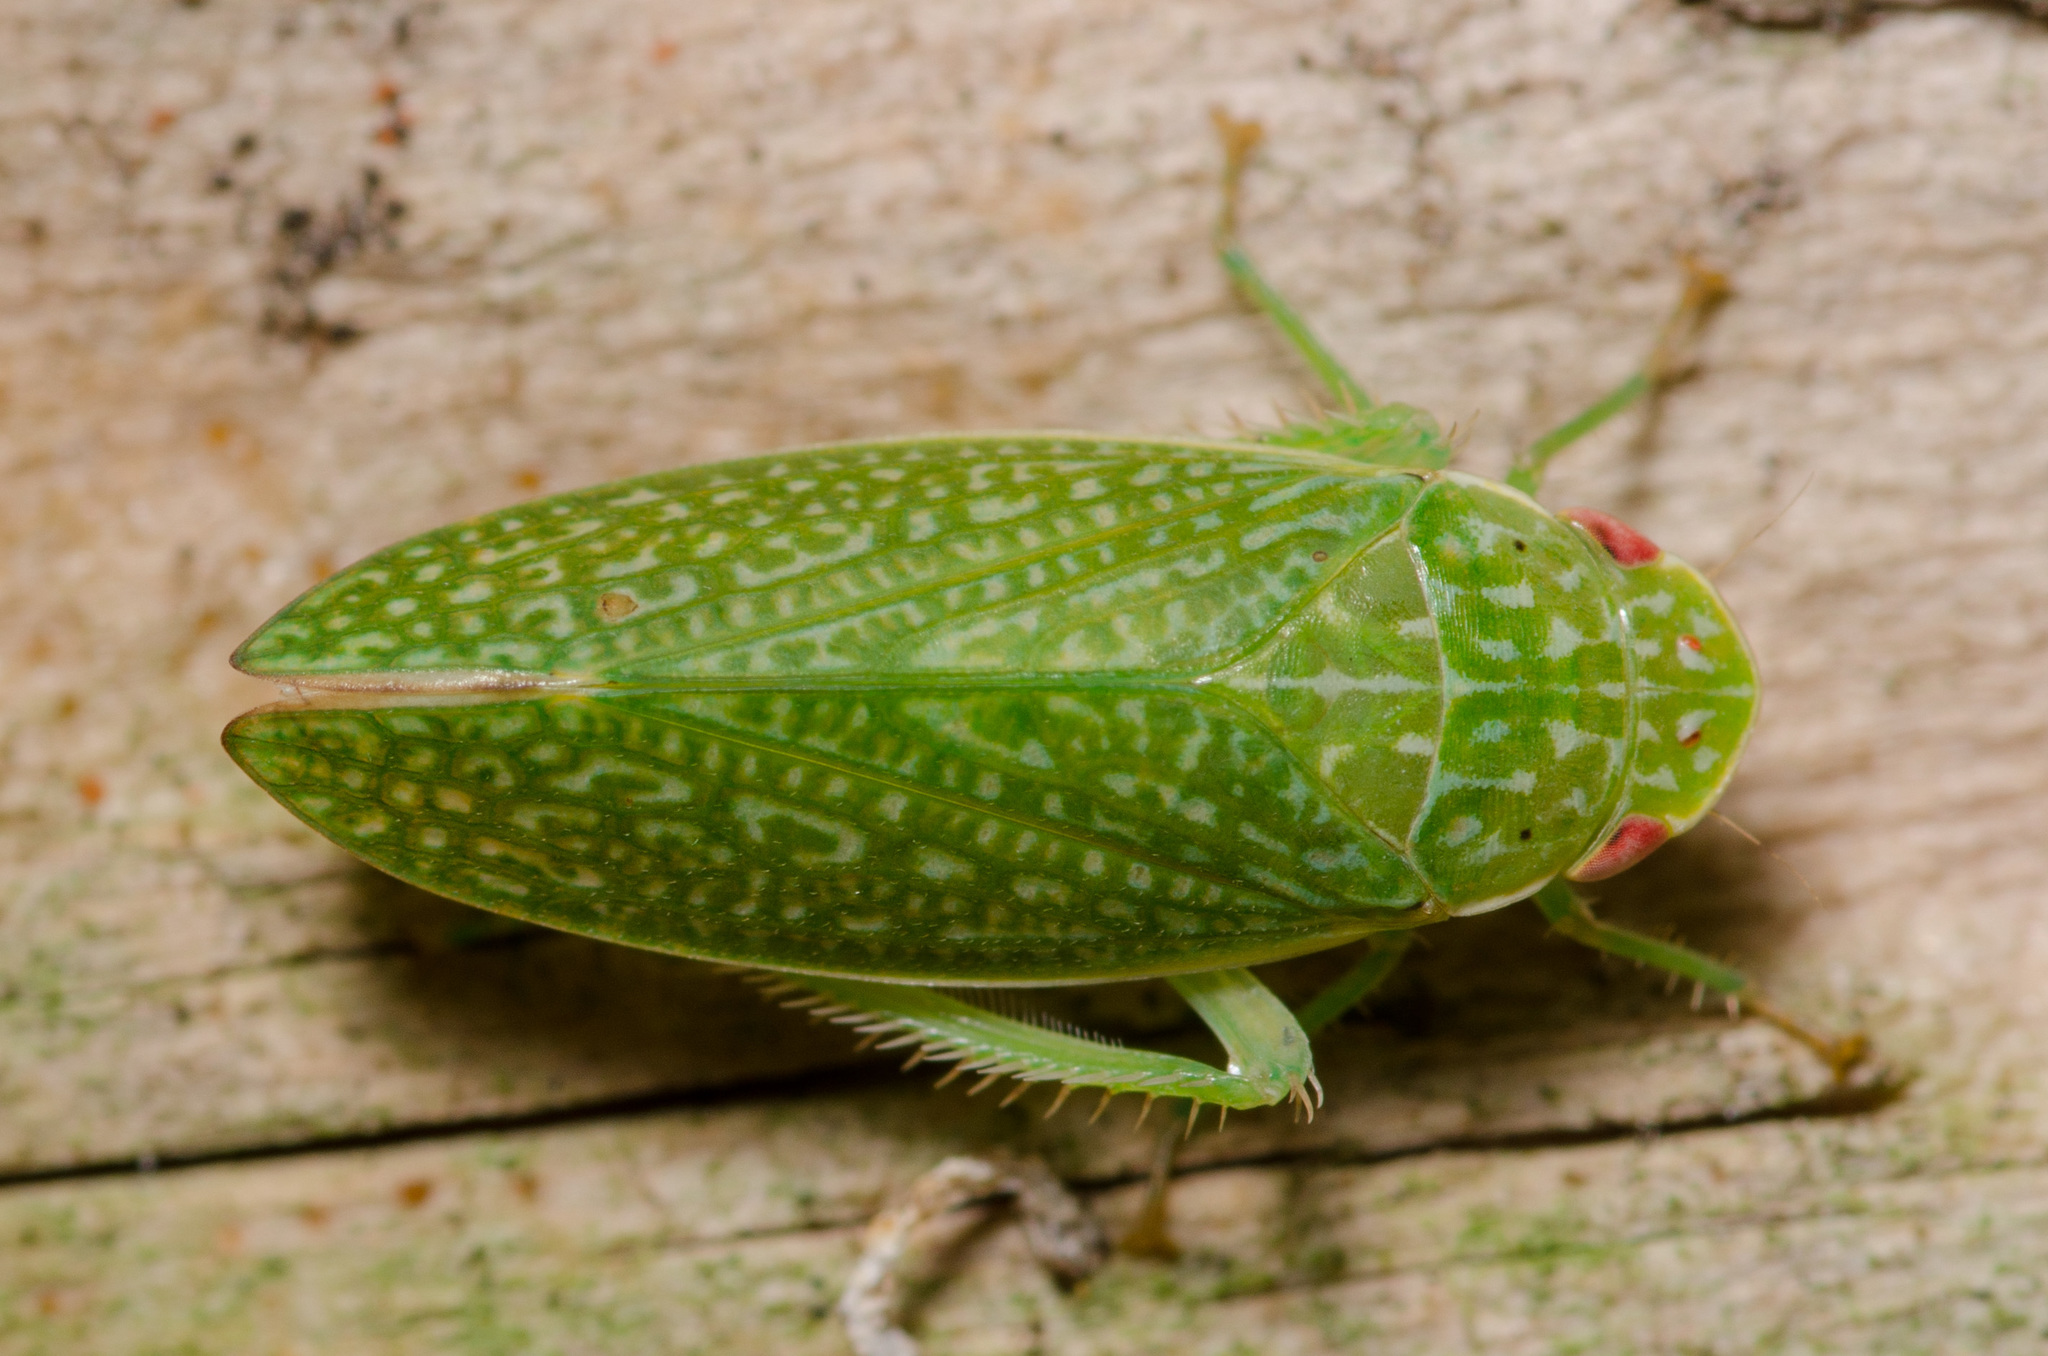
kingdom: Animalia
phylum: Arthropoda
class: Insecta
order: Hemiptera
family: Cicadellidae
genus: Rugosana
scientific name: Rugosana querci
